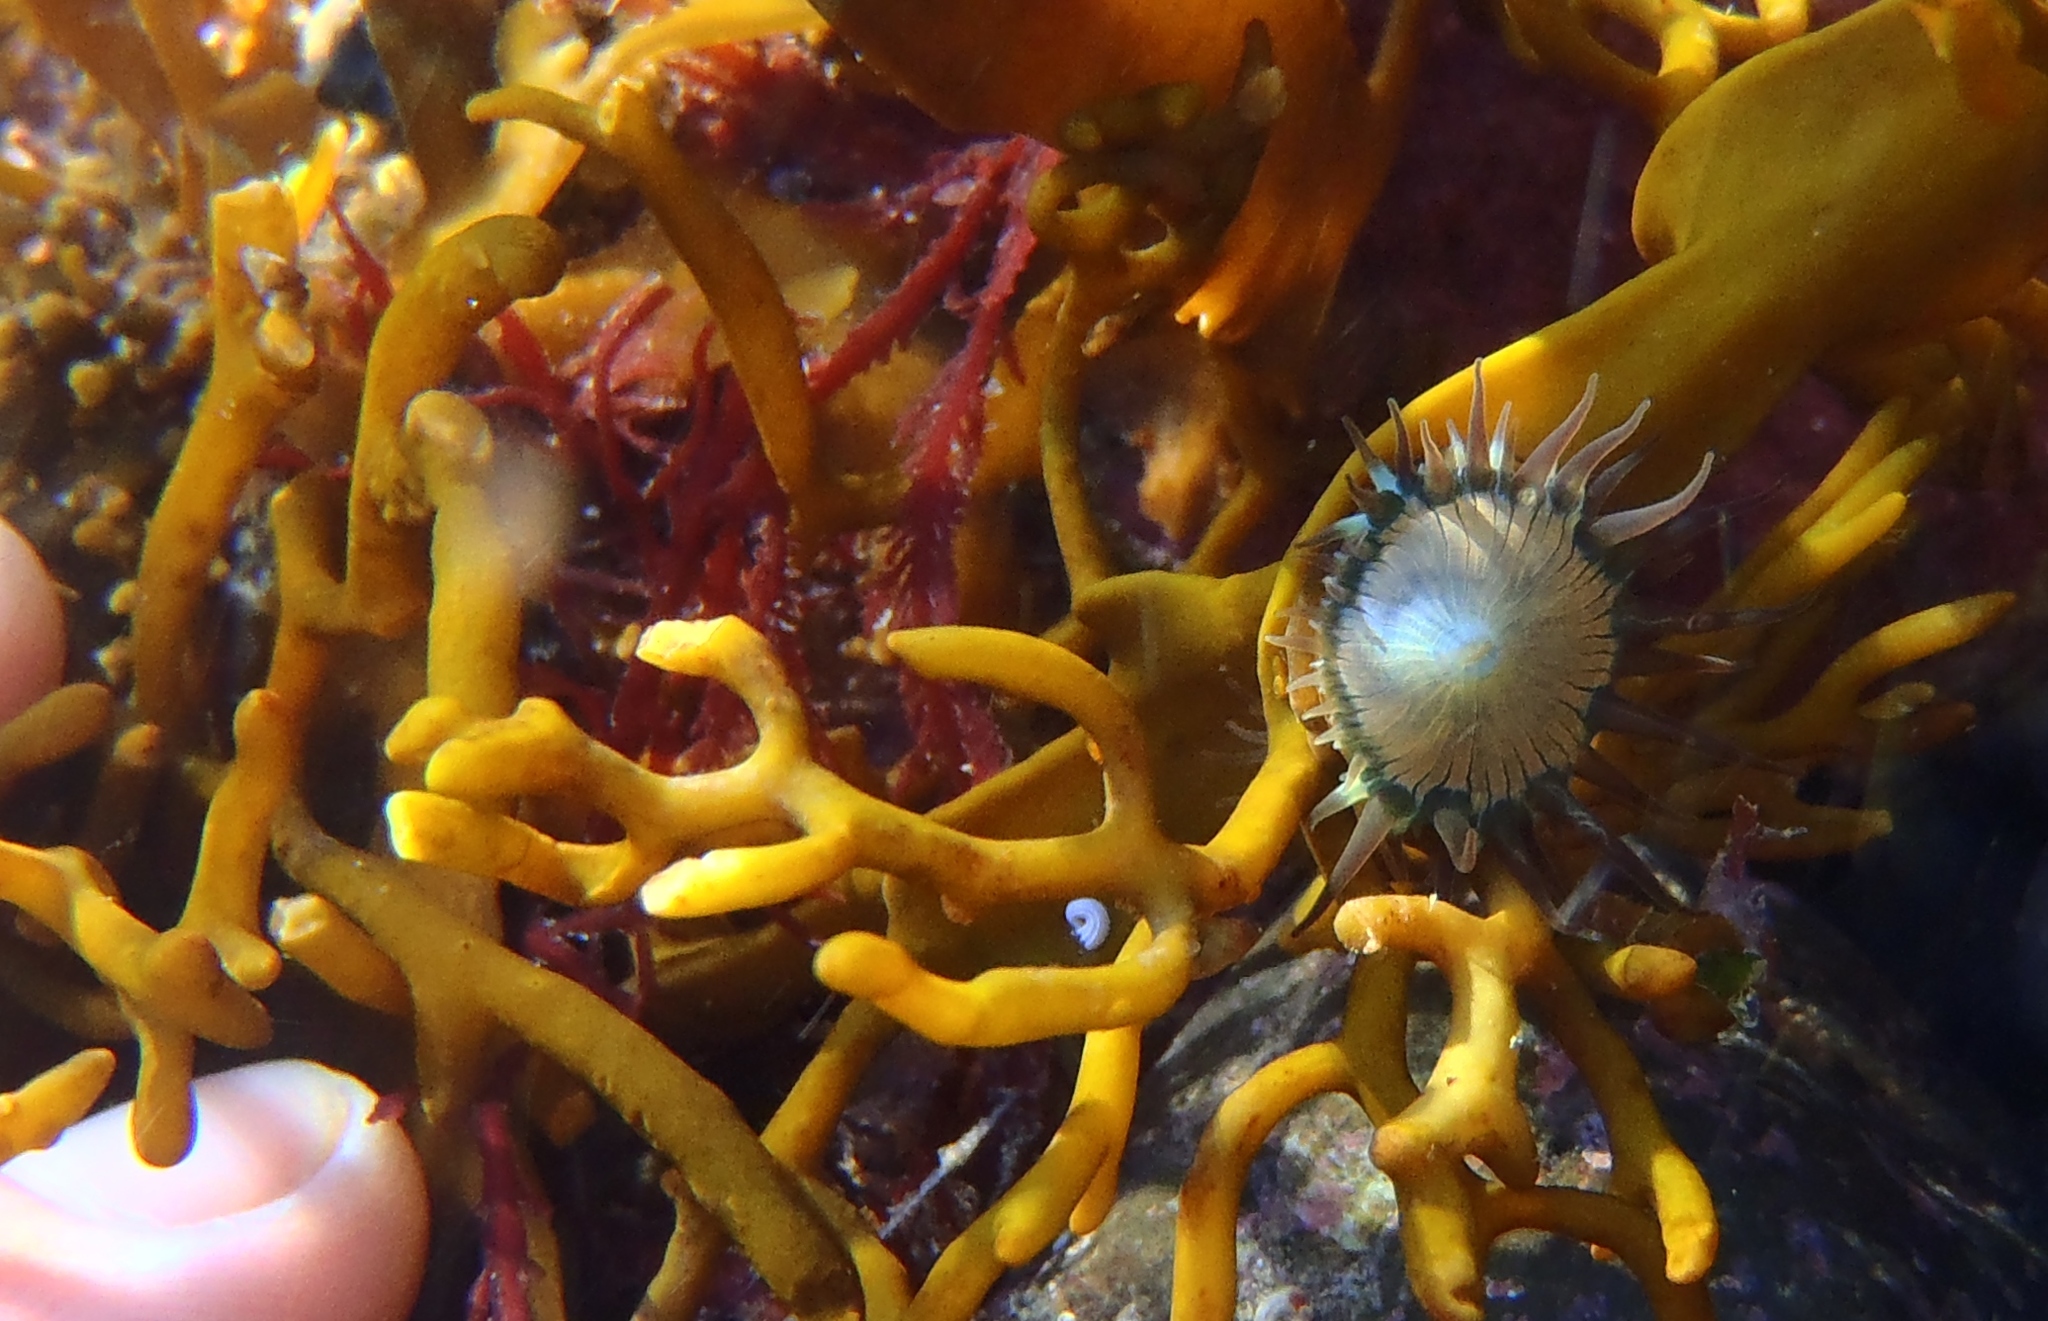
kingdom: Animalia
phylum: Cnidaria
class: Anthozoa
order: Actiniaria
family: Hormathiidae
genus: Handactis
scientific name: Handactis nutrix
